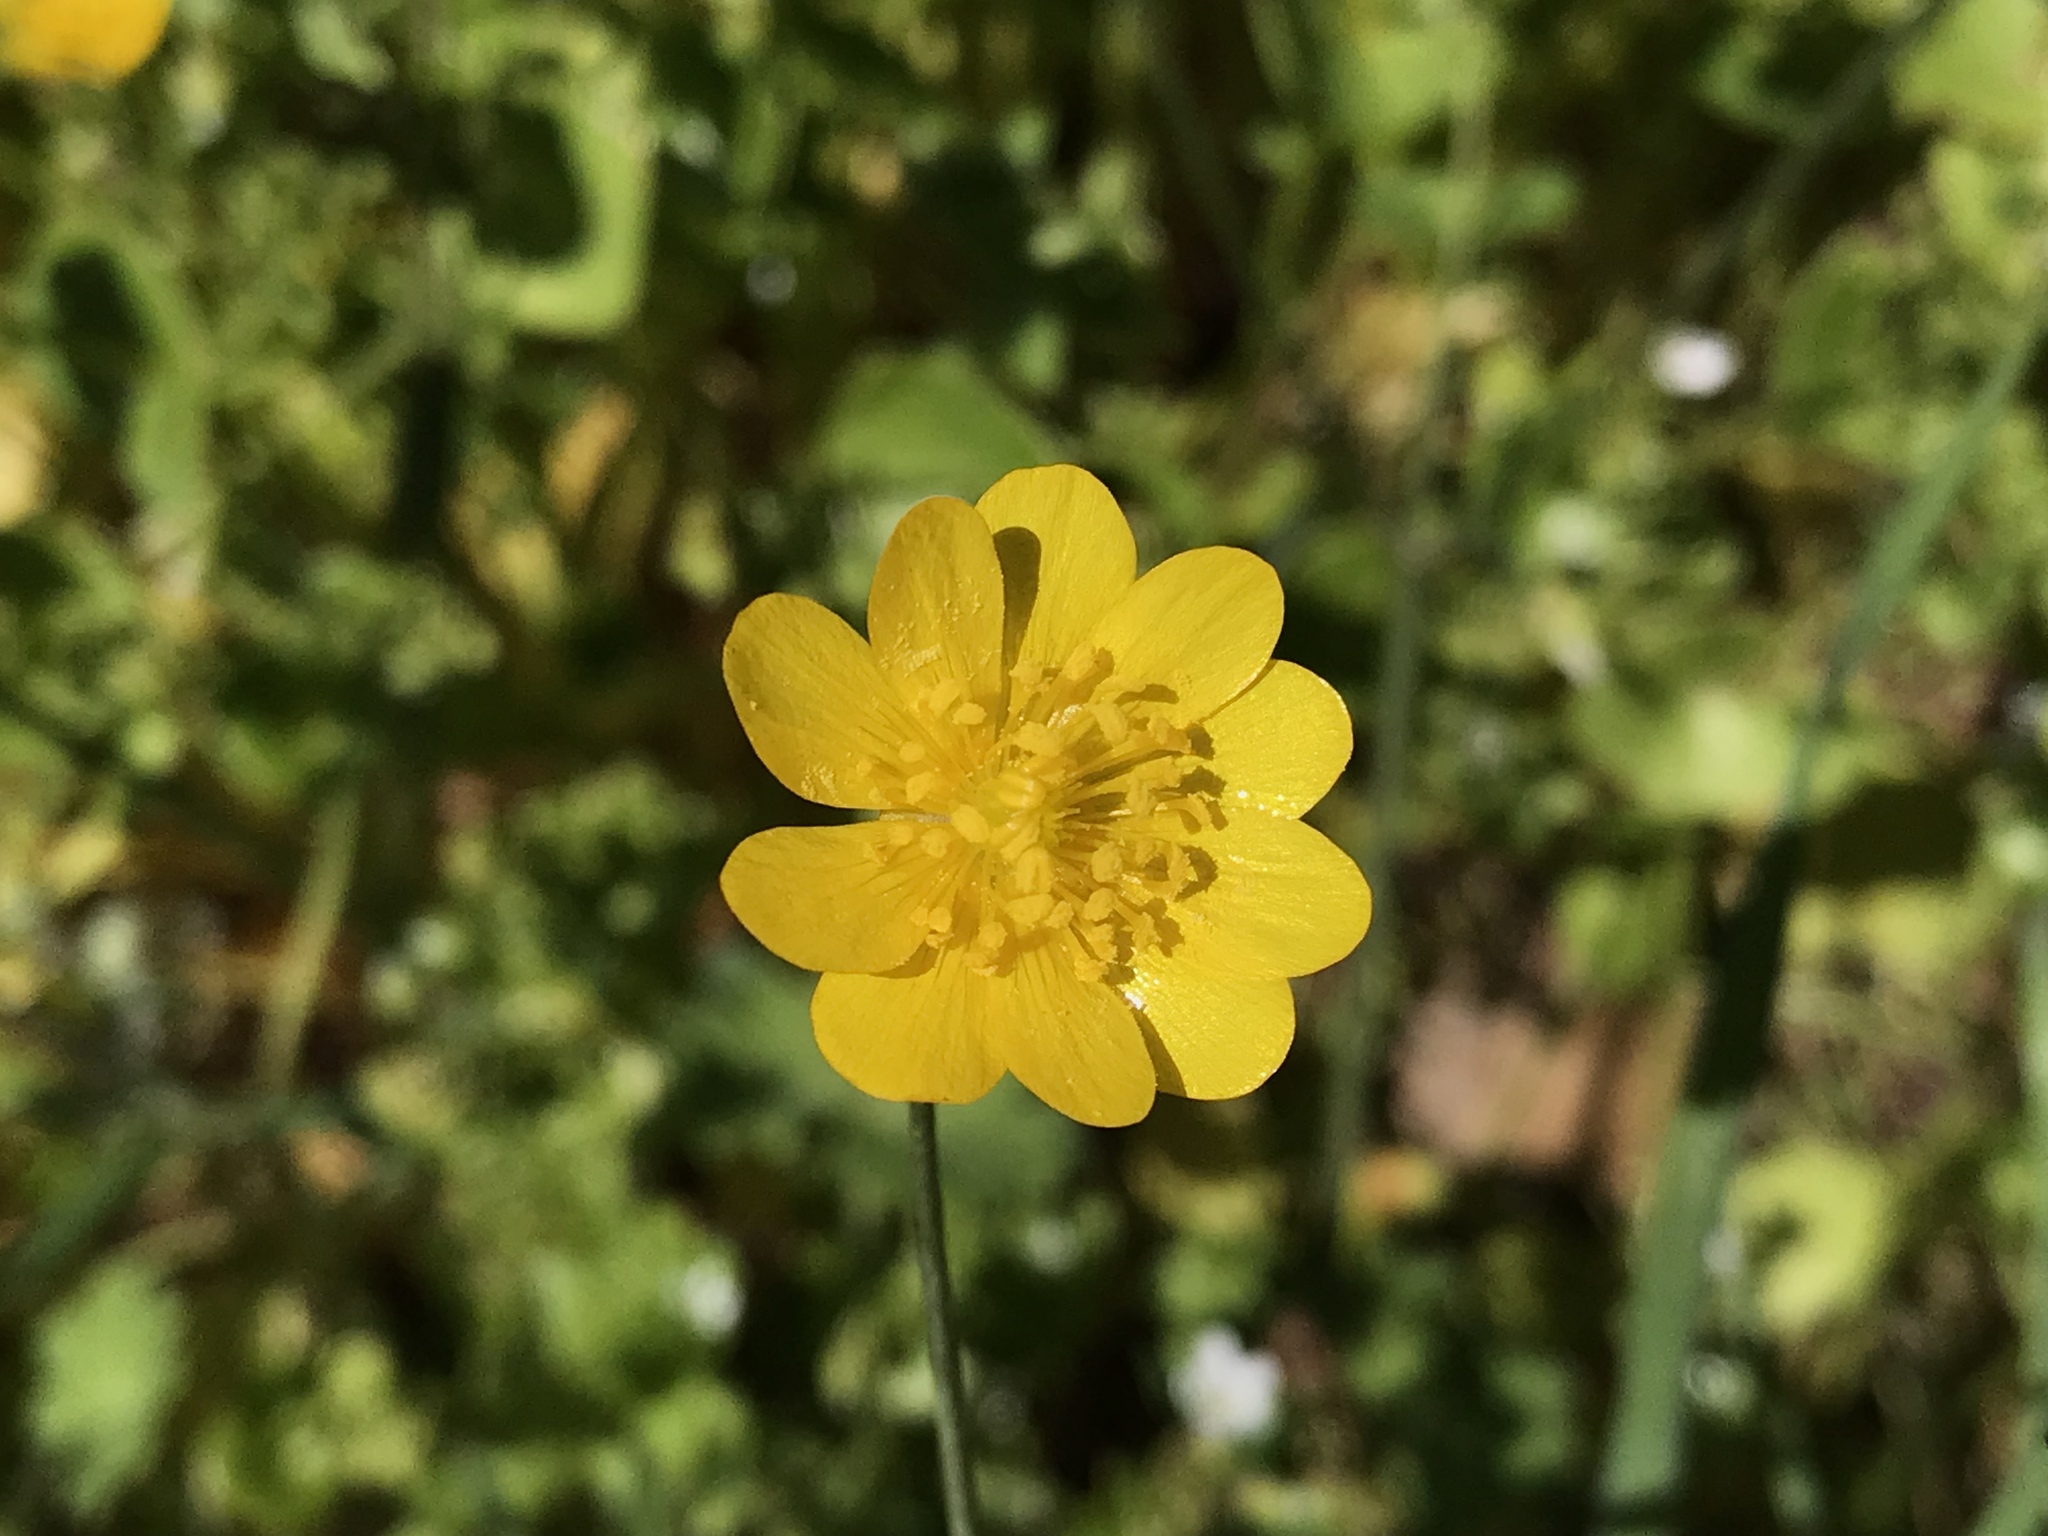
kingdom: Plantae
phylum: Tracheophyta
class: Magnoliopsida
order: Ranunculales
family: Ranunculaceae
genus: Ranunculus
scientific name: Ranunculus californicus
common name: California buttercup
